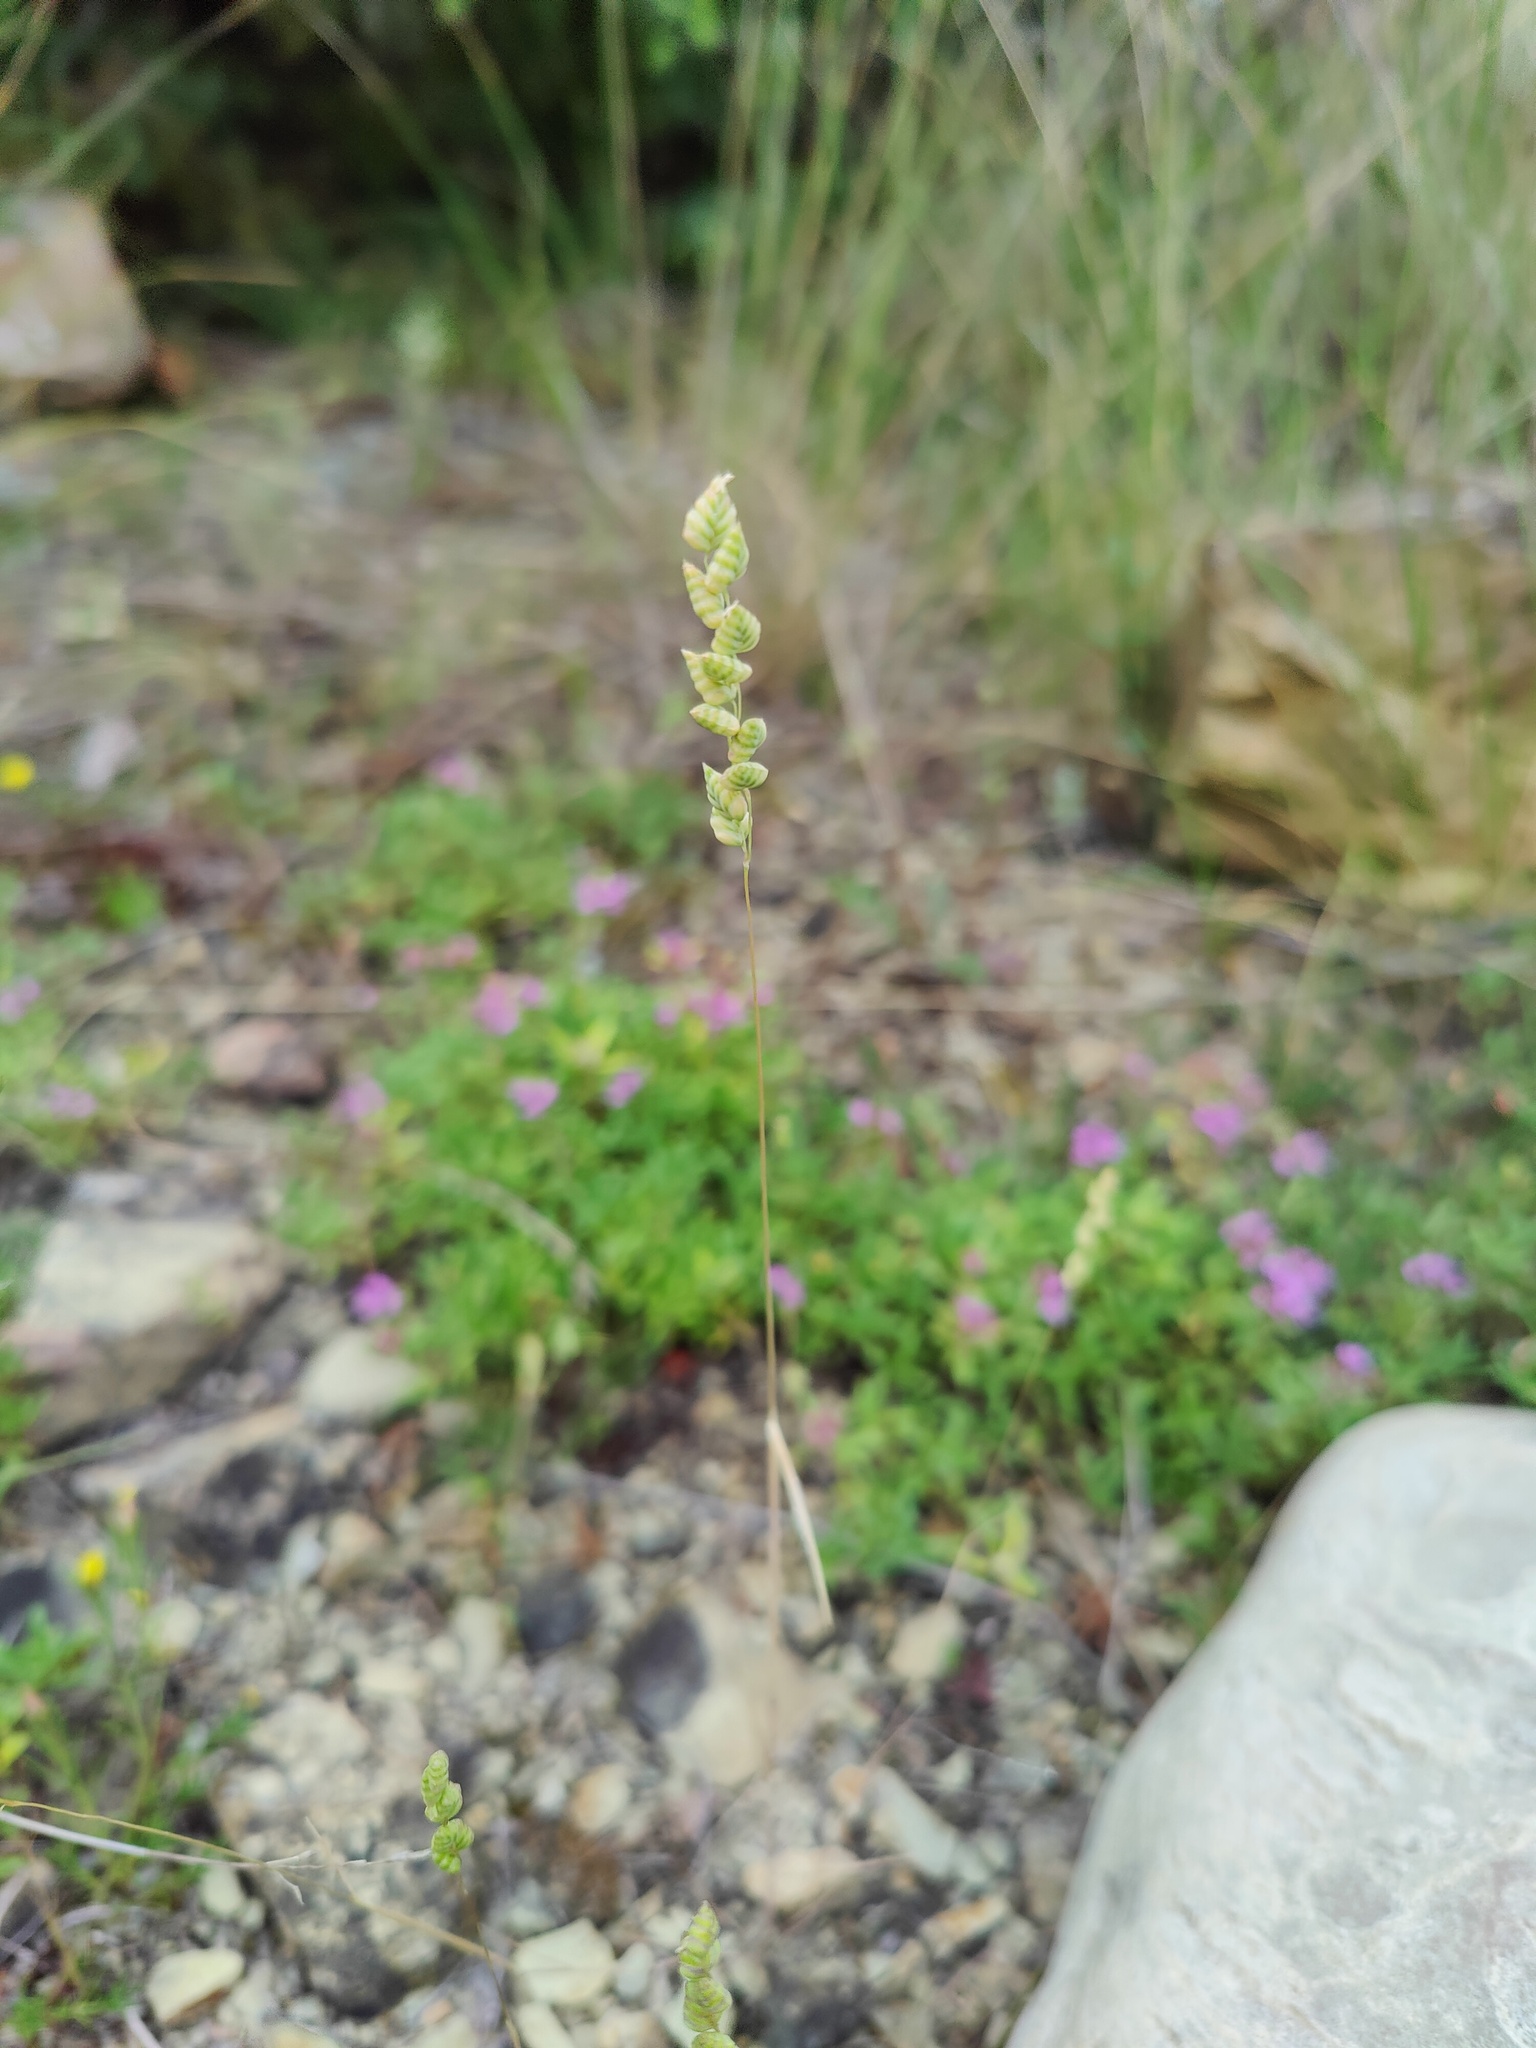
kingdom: Plantae
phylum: Tracheophyta
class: Liliopsida
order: Poales
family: Poaceae
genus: Briza
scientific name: Briza humilis
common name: Spiked quaking grass
